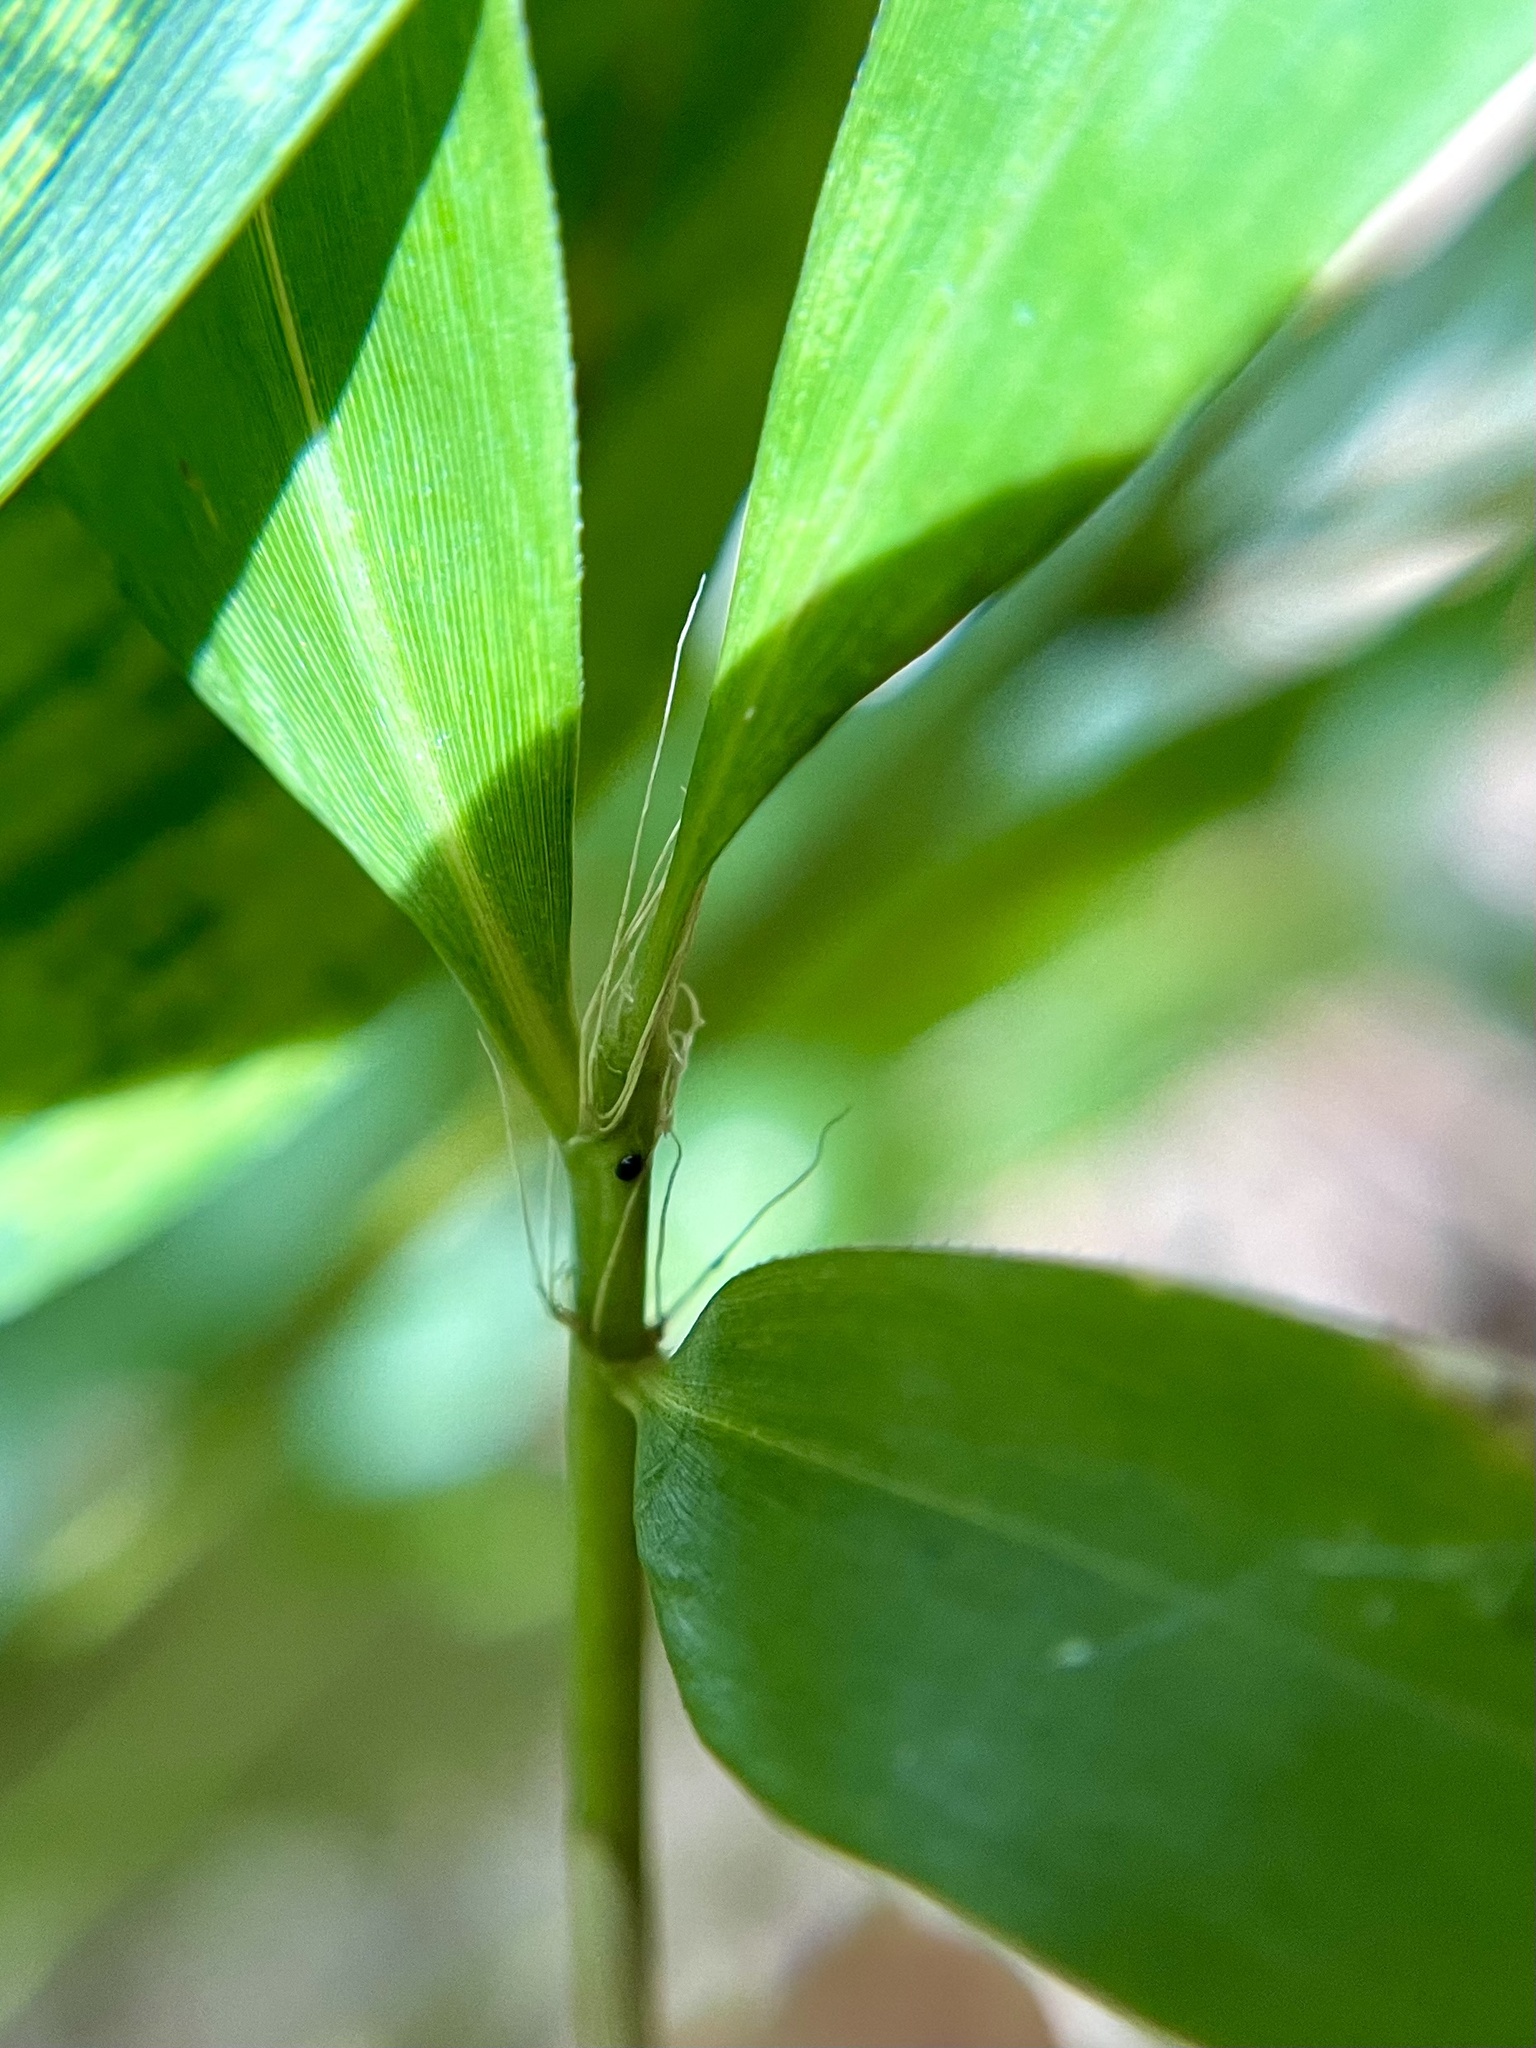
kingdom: Plantae
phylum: Tracheophyta
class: Liliopsida
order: Poales
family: Poaceae
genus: Phyllostachys
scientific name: Phyllostachys nigra
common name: Black bamboo
